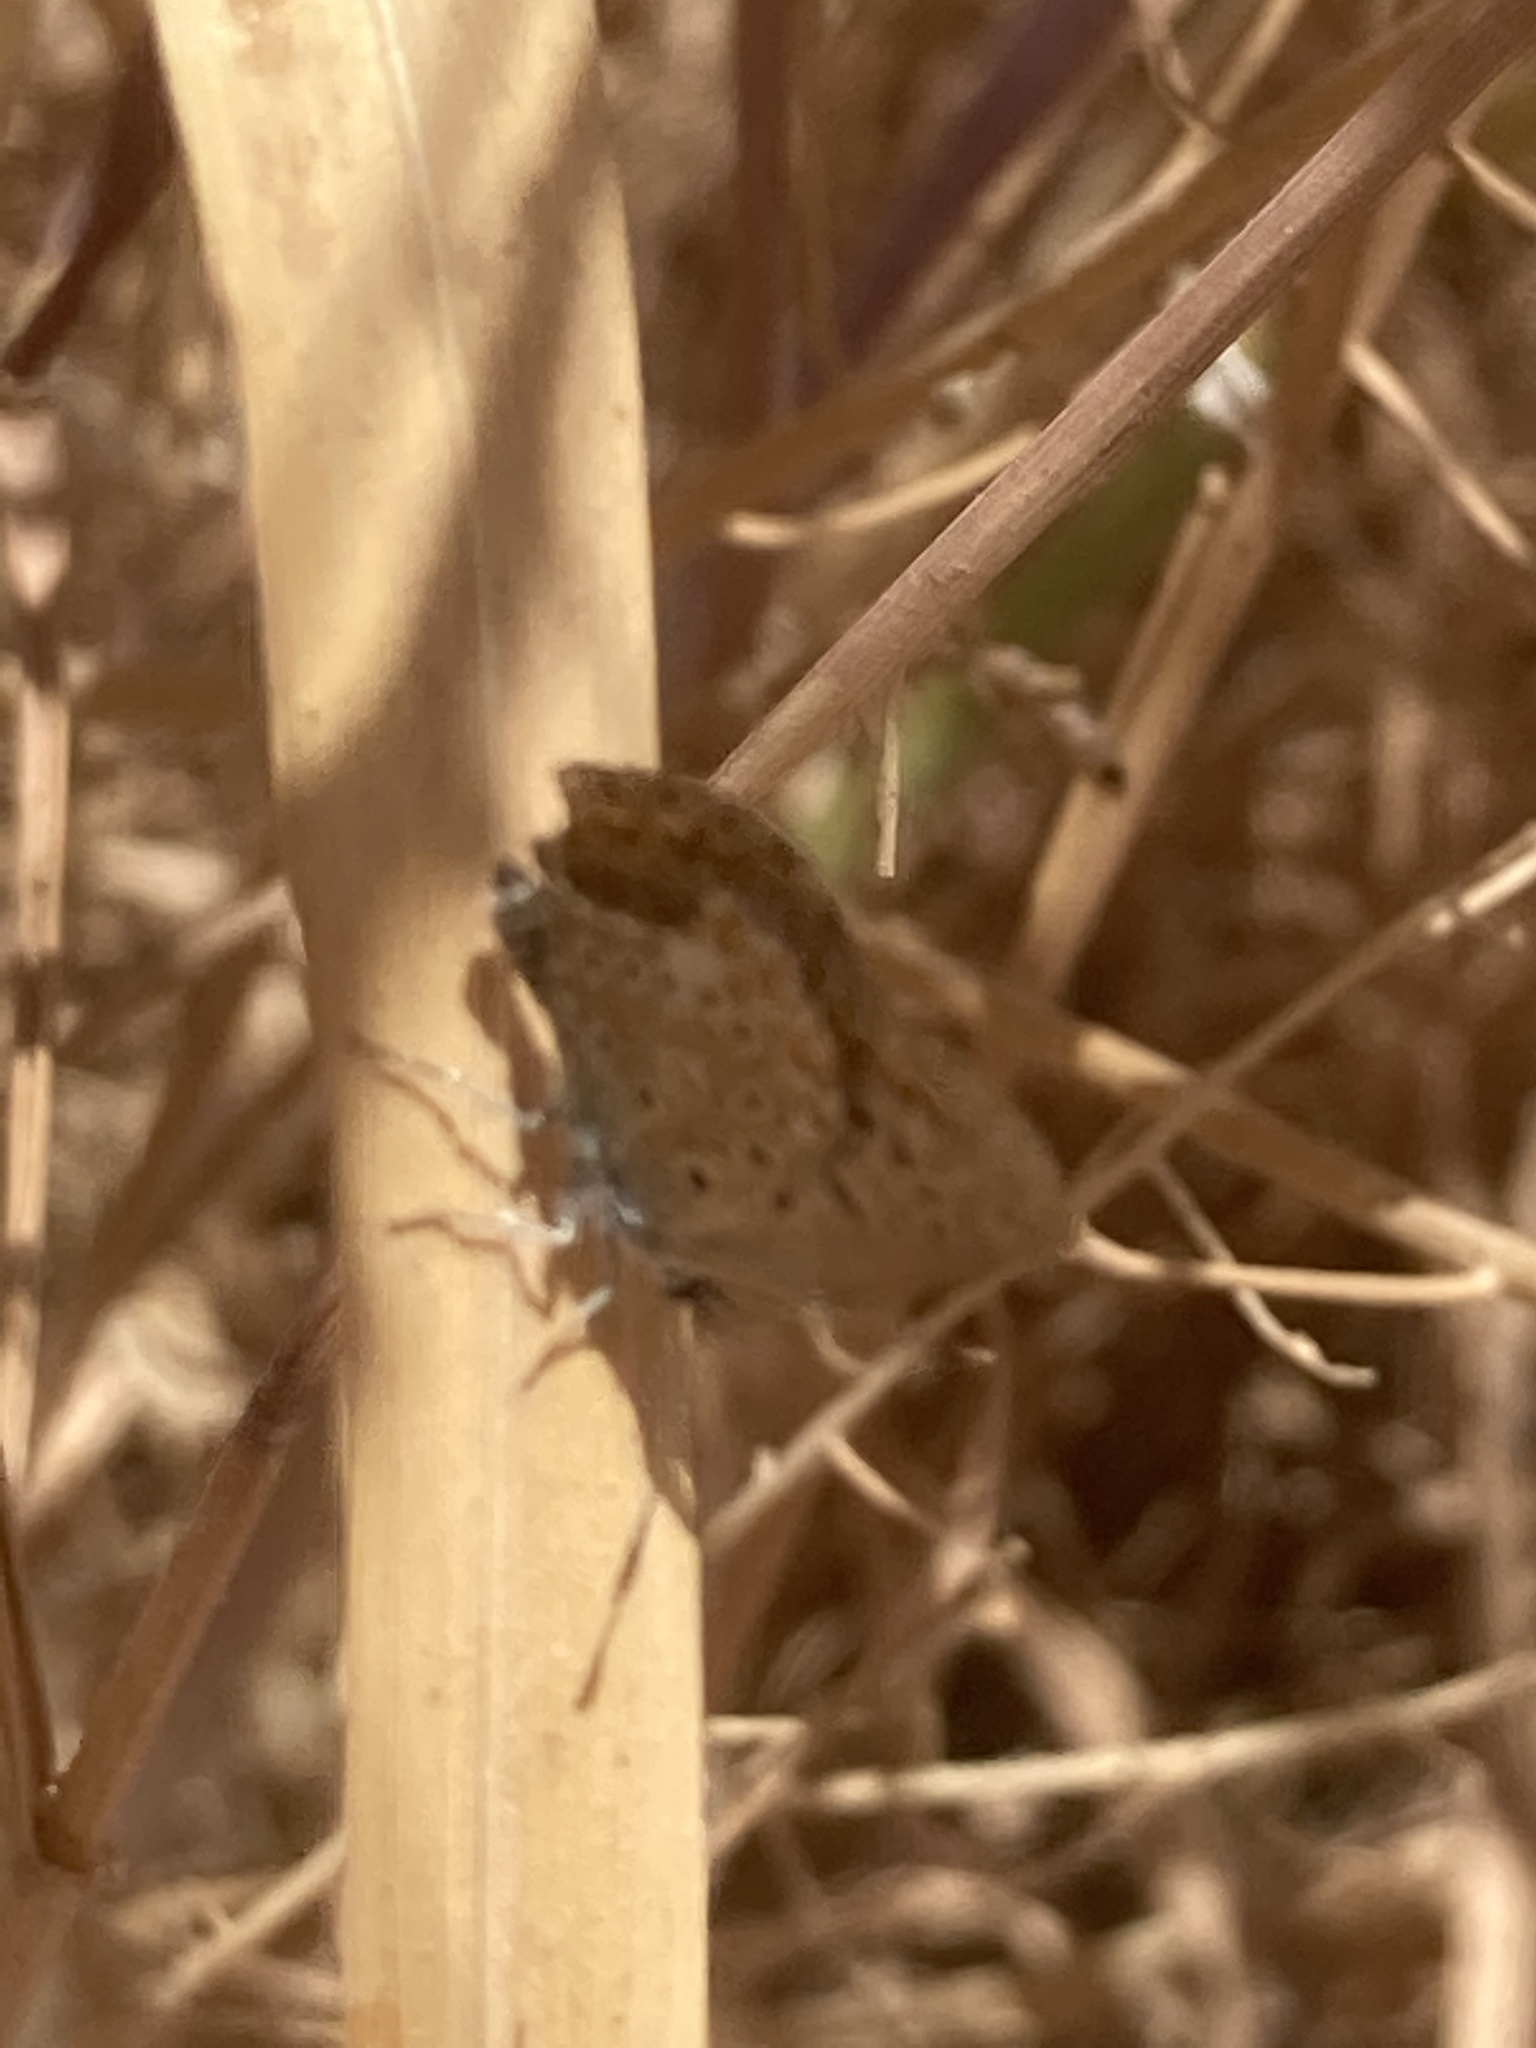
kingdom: Animalia
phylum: Arthropoda
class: Insecta
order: Lepidoptera
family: Lycaenidae
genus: Polyommatus
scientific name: Polyommatus icarus
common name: Common blue
